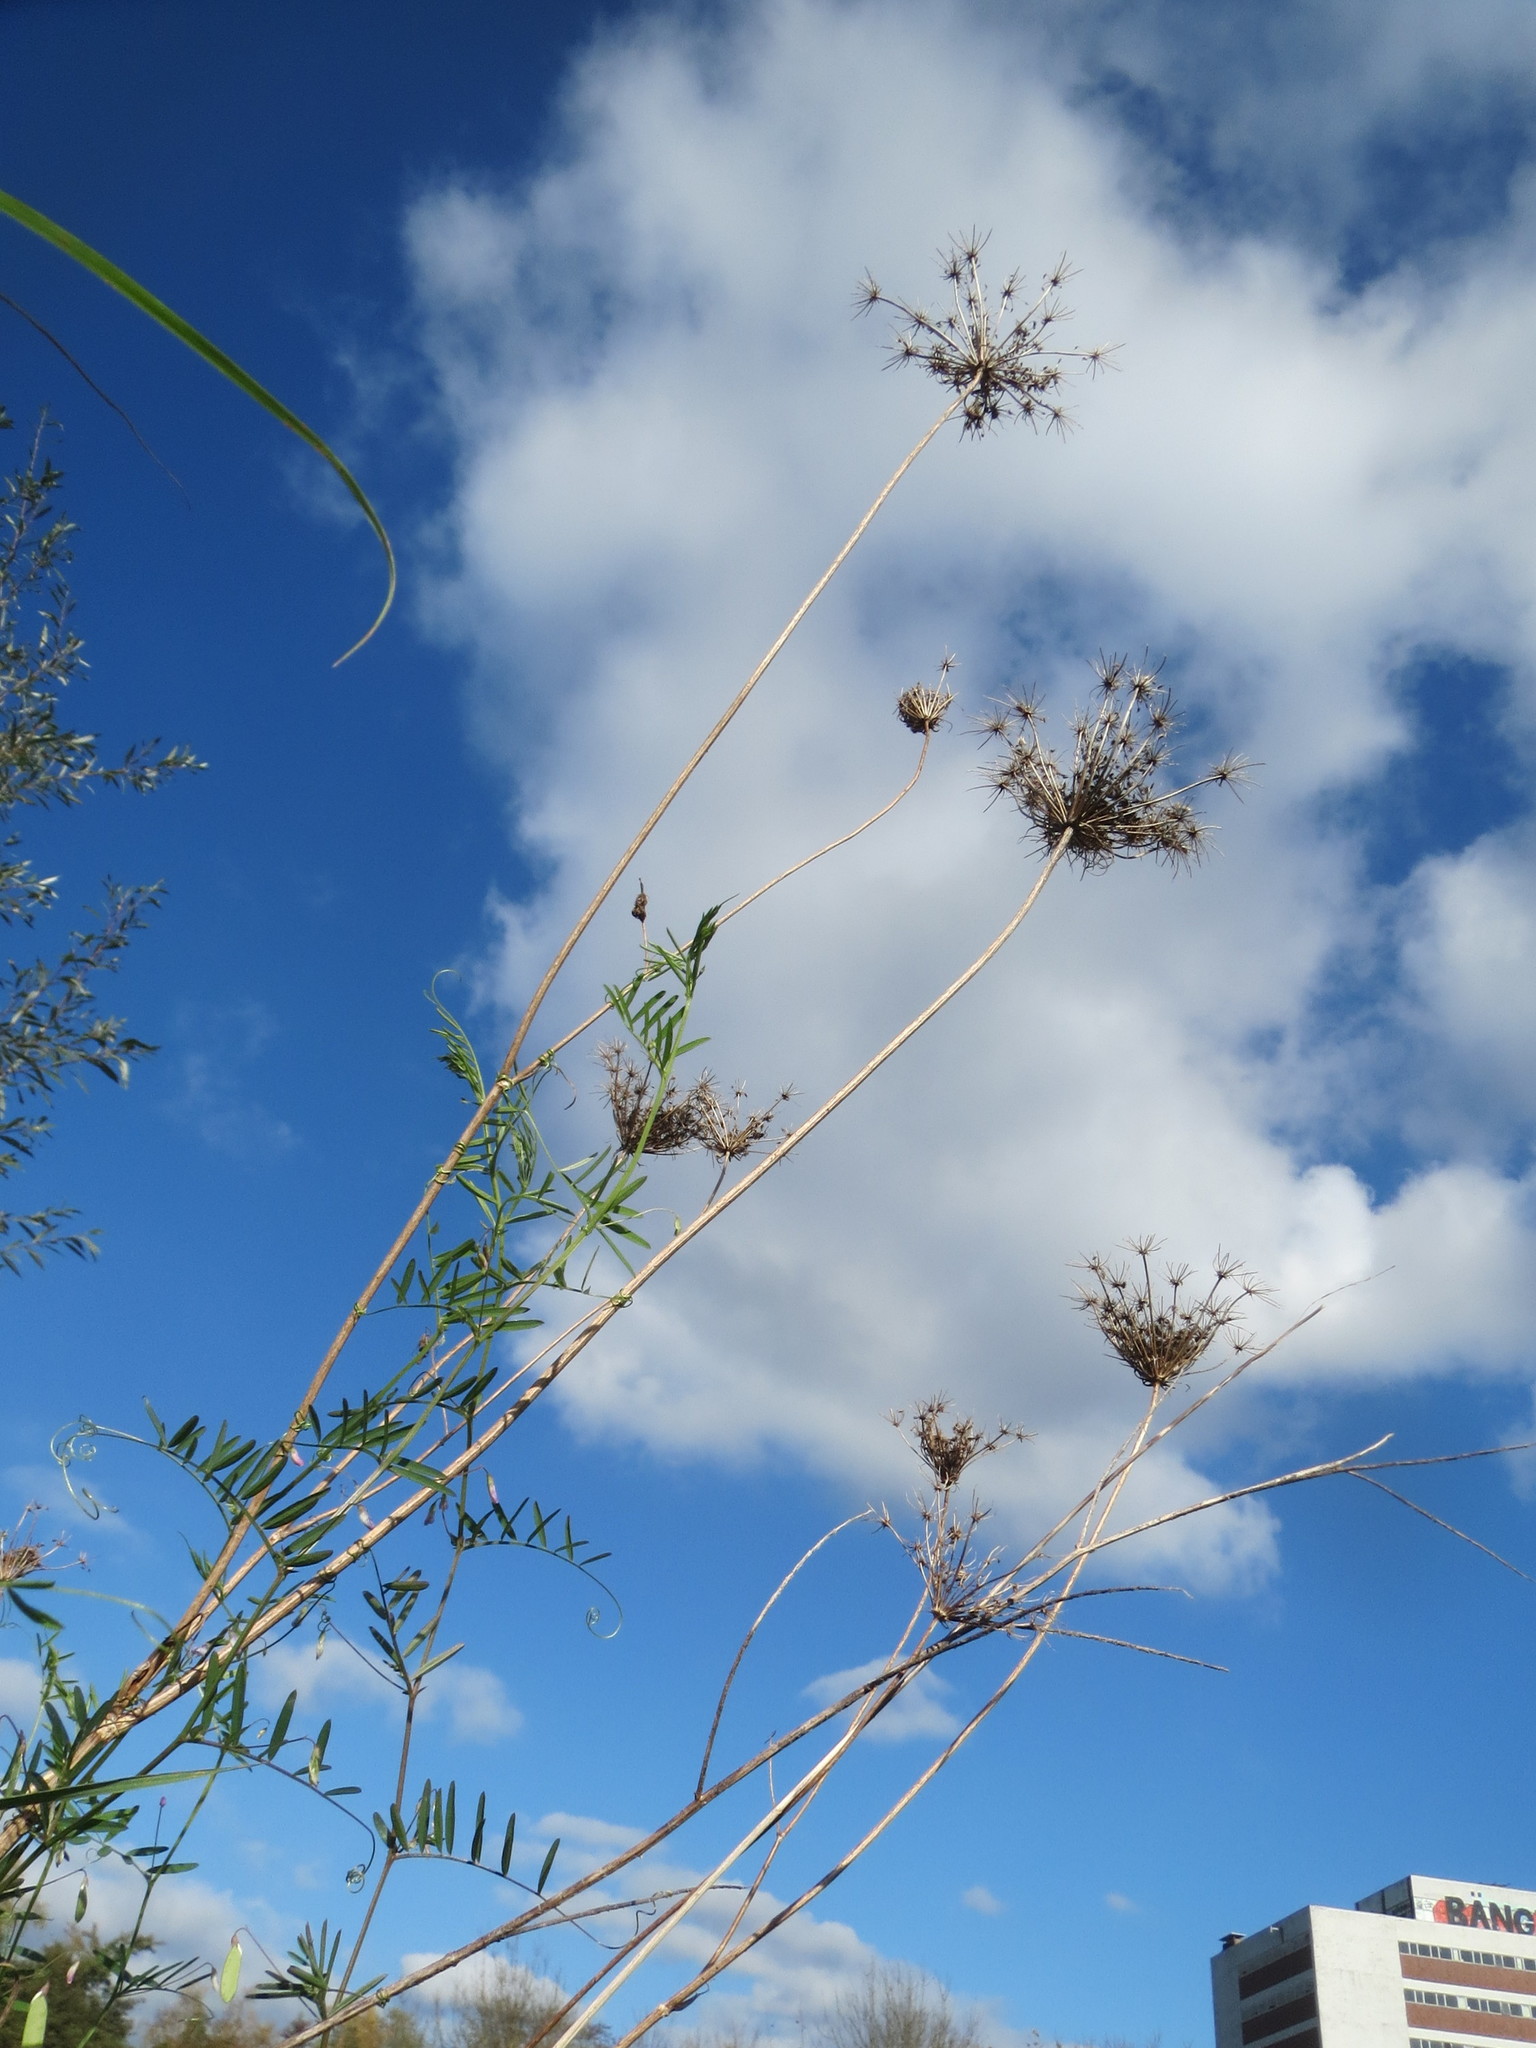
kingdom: Plantae
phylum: Tracheophyta
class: Magnoliopsida
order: Apiales
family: Apiaceae
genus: Daucus
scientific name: Daucus carota
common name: Wild carrot
